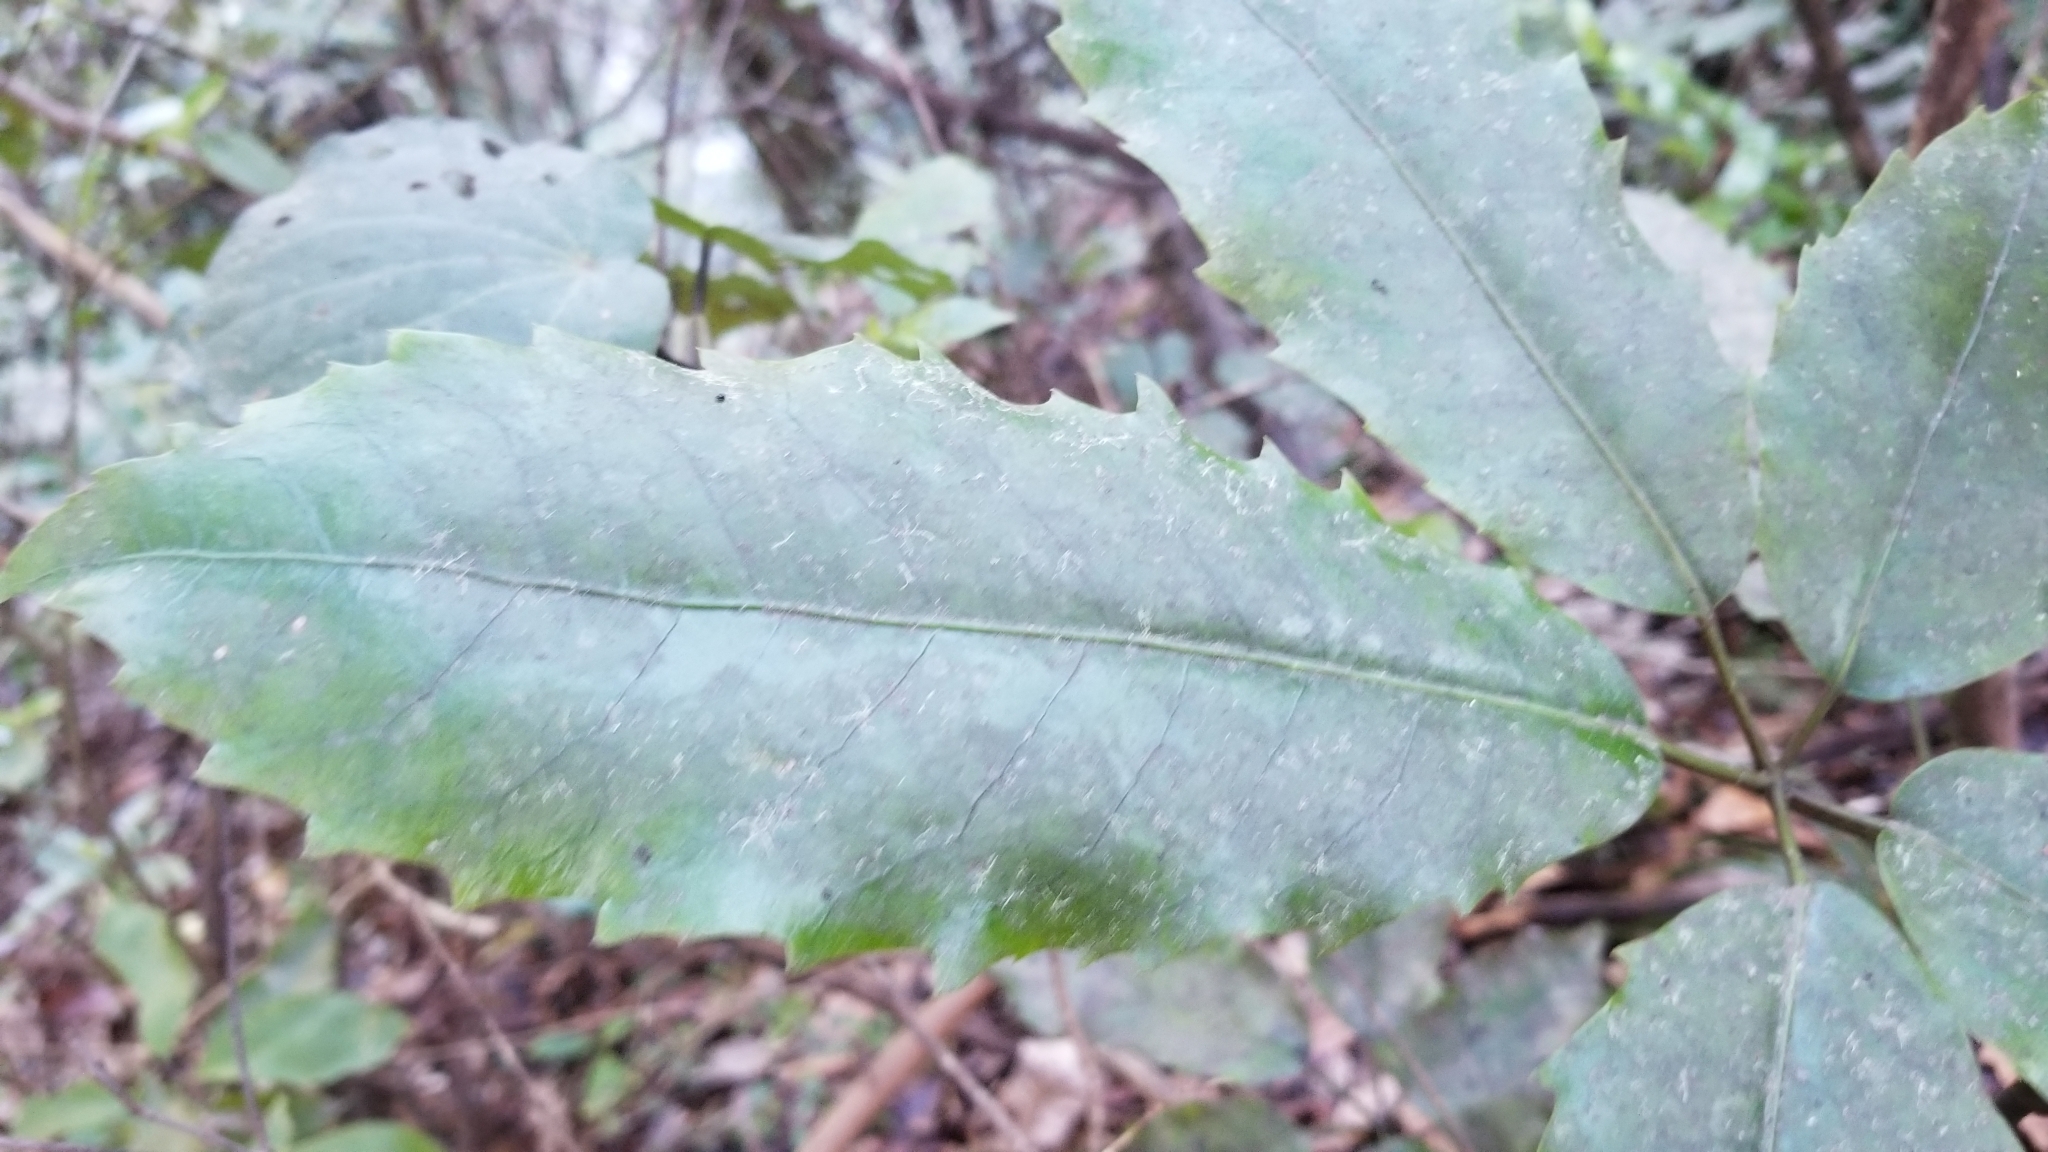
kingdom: Plantae
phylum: Tracheophyta
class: Magnoliopsida
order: Apiales
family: Araliaceae
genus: Neopanax
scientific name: Neopanax arboreus
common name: Five-fingers
